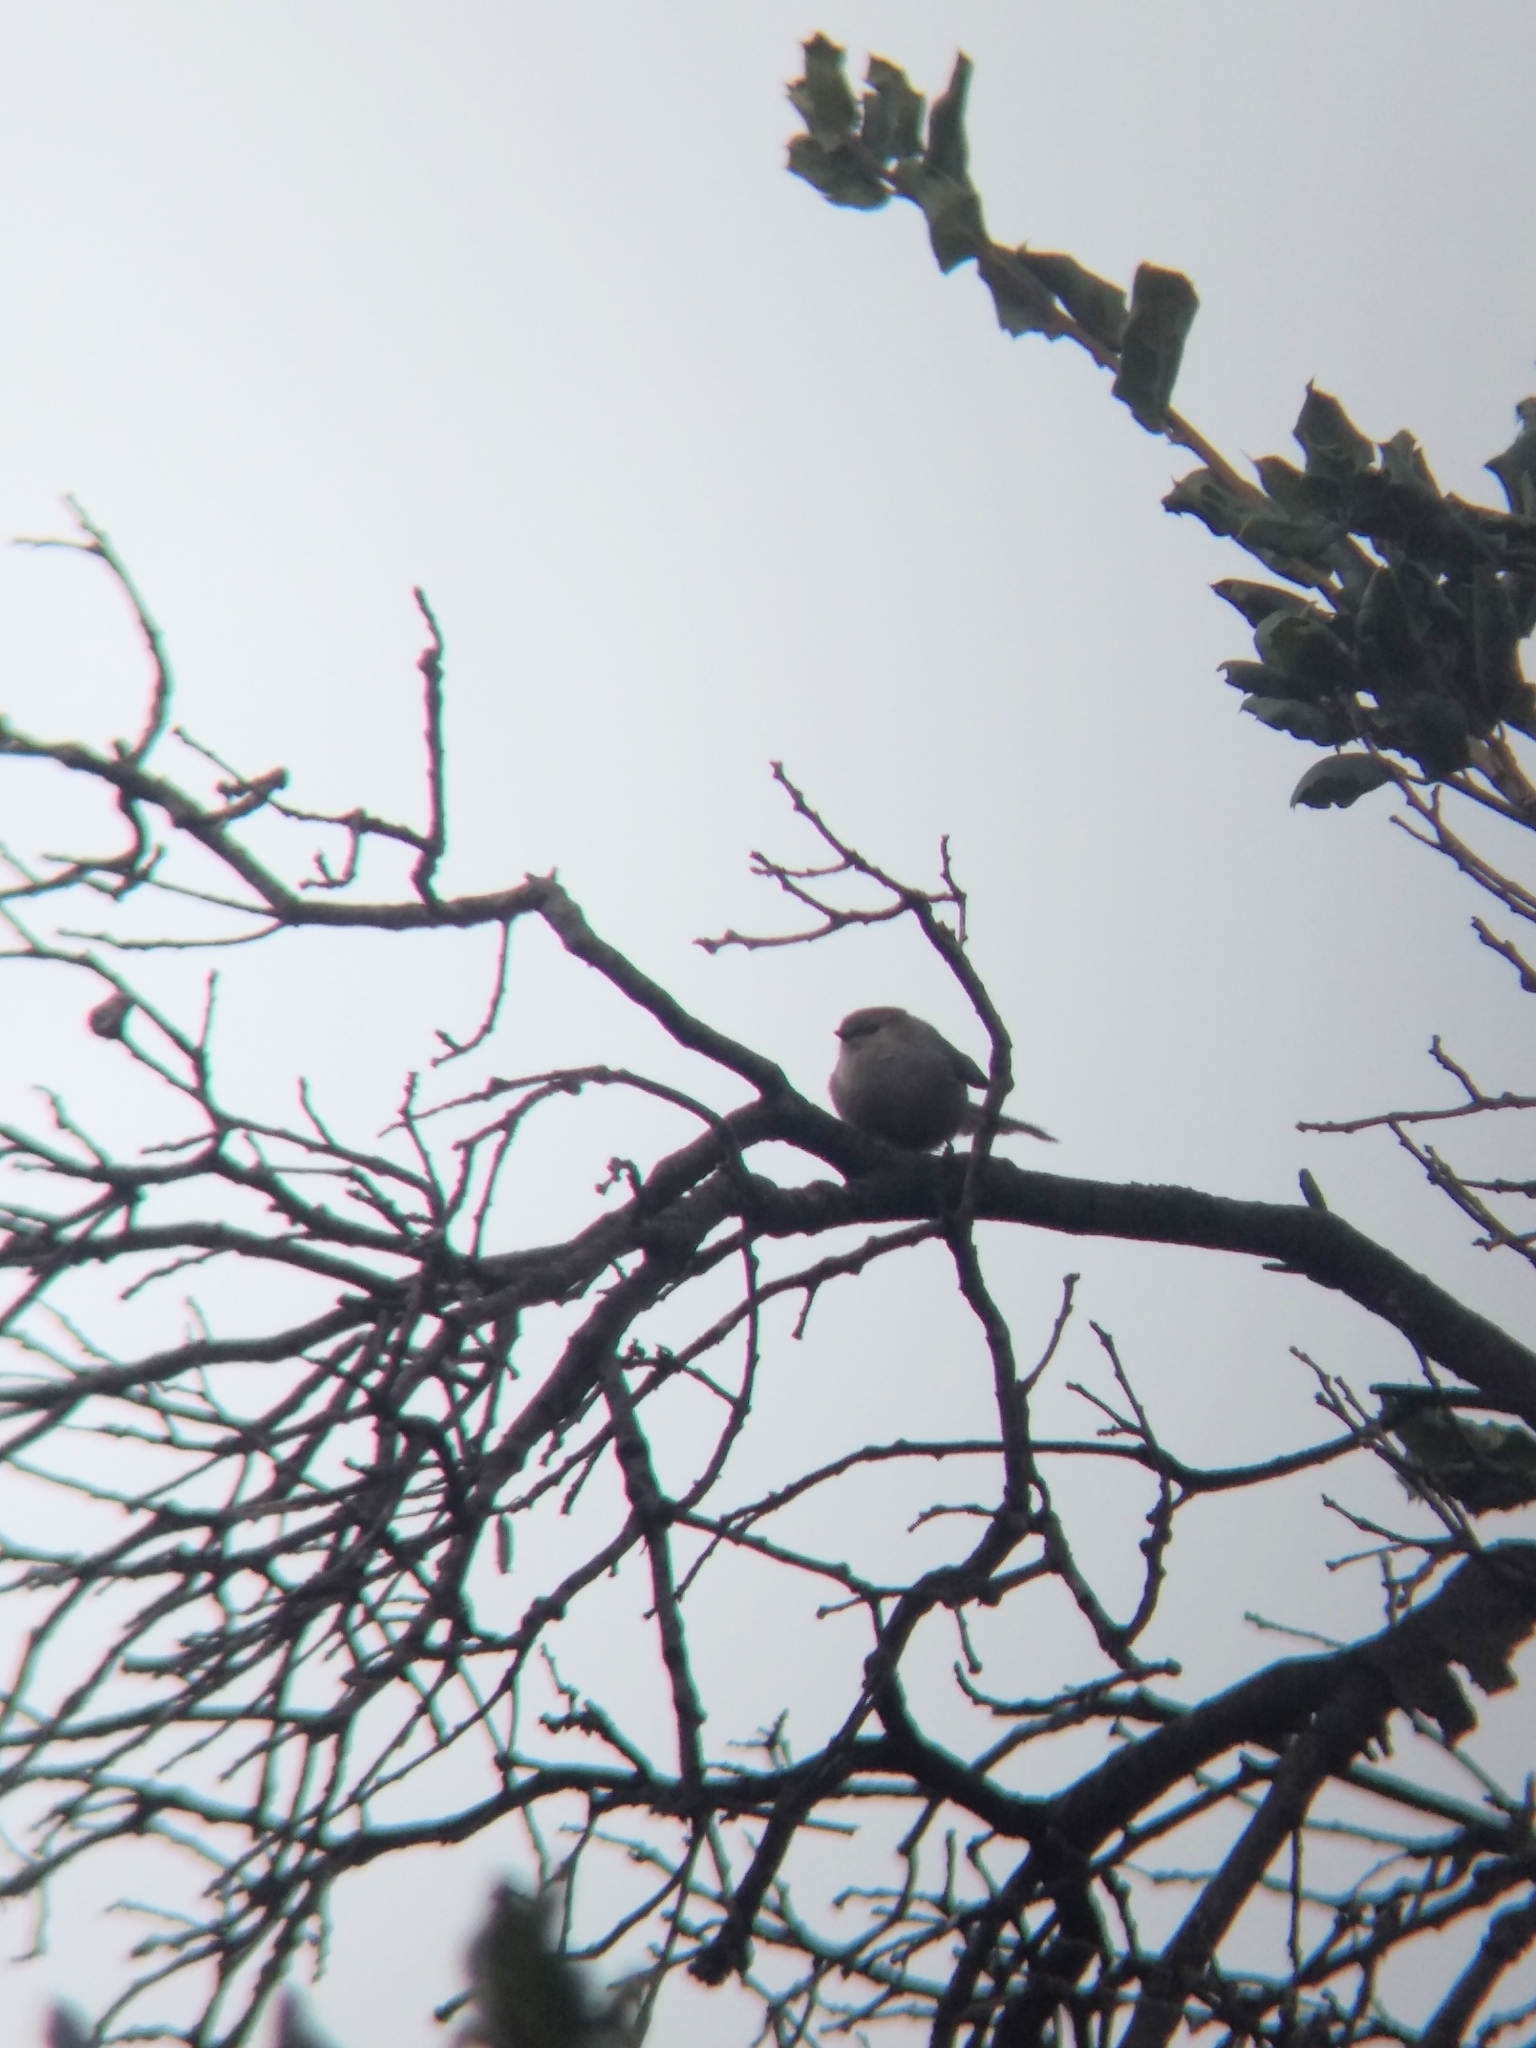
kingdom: Animalia
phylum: Chordata
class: Aves
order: Passeriformes
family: Aegithalidae
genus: Psaltriparus
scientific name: Psaltriparus minimus
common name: American bushtit
